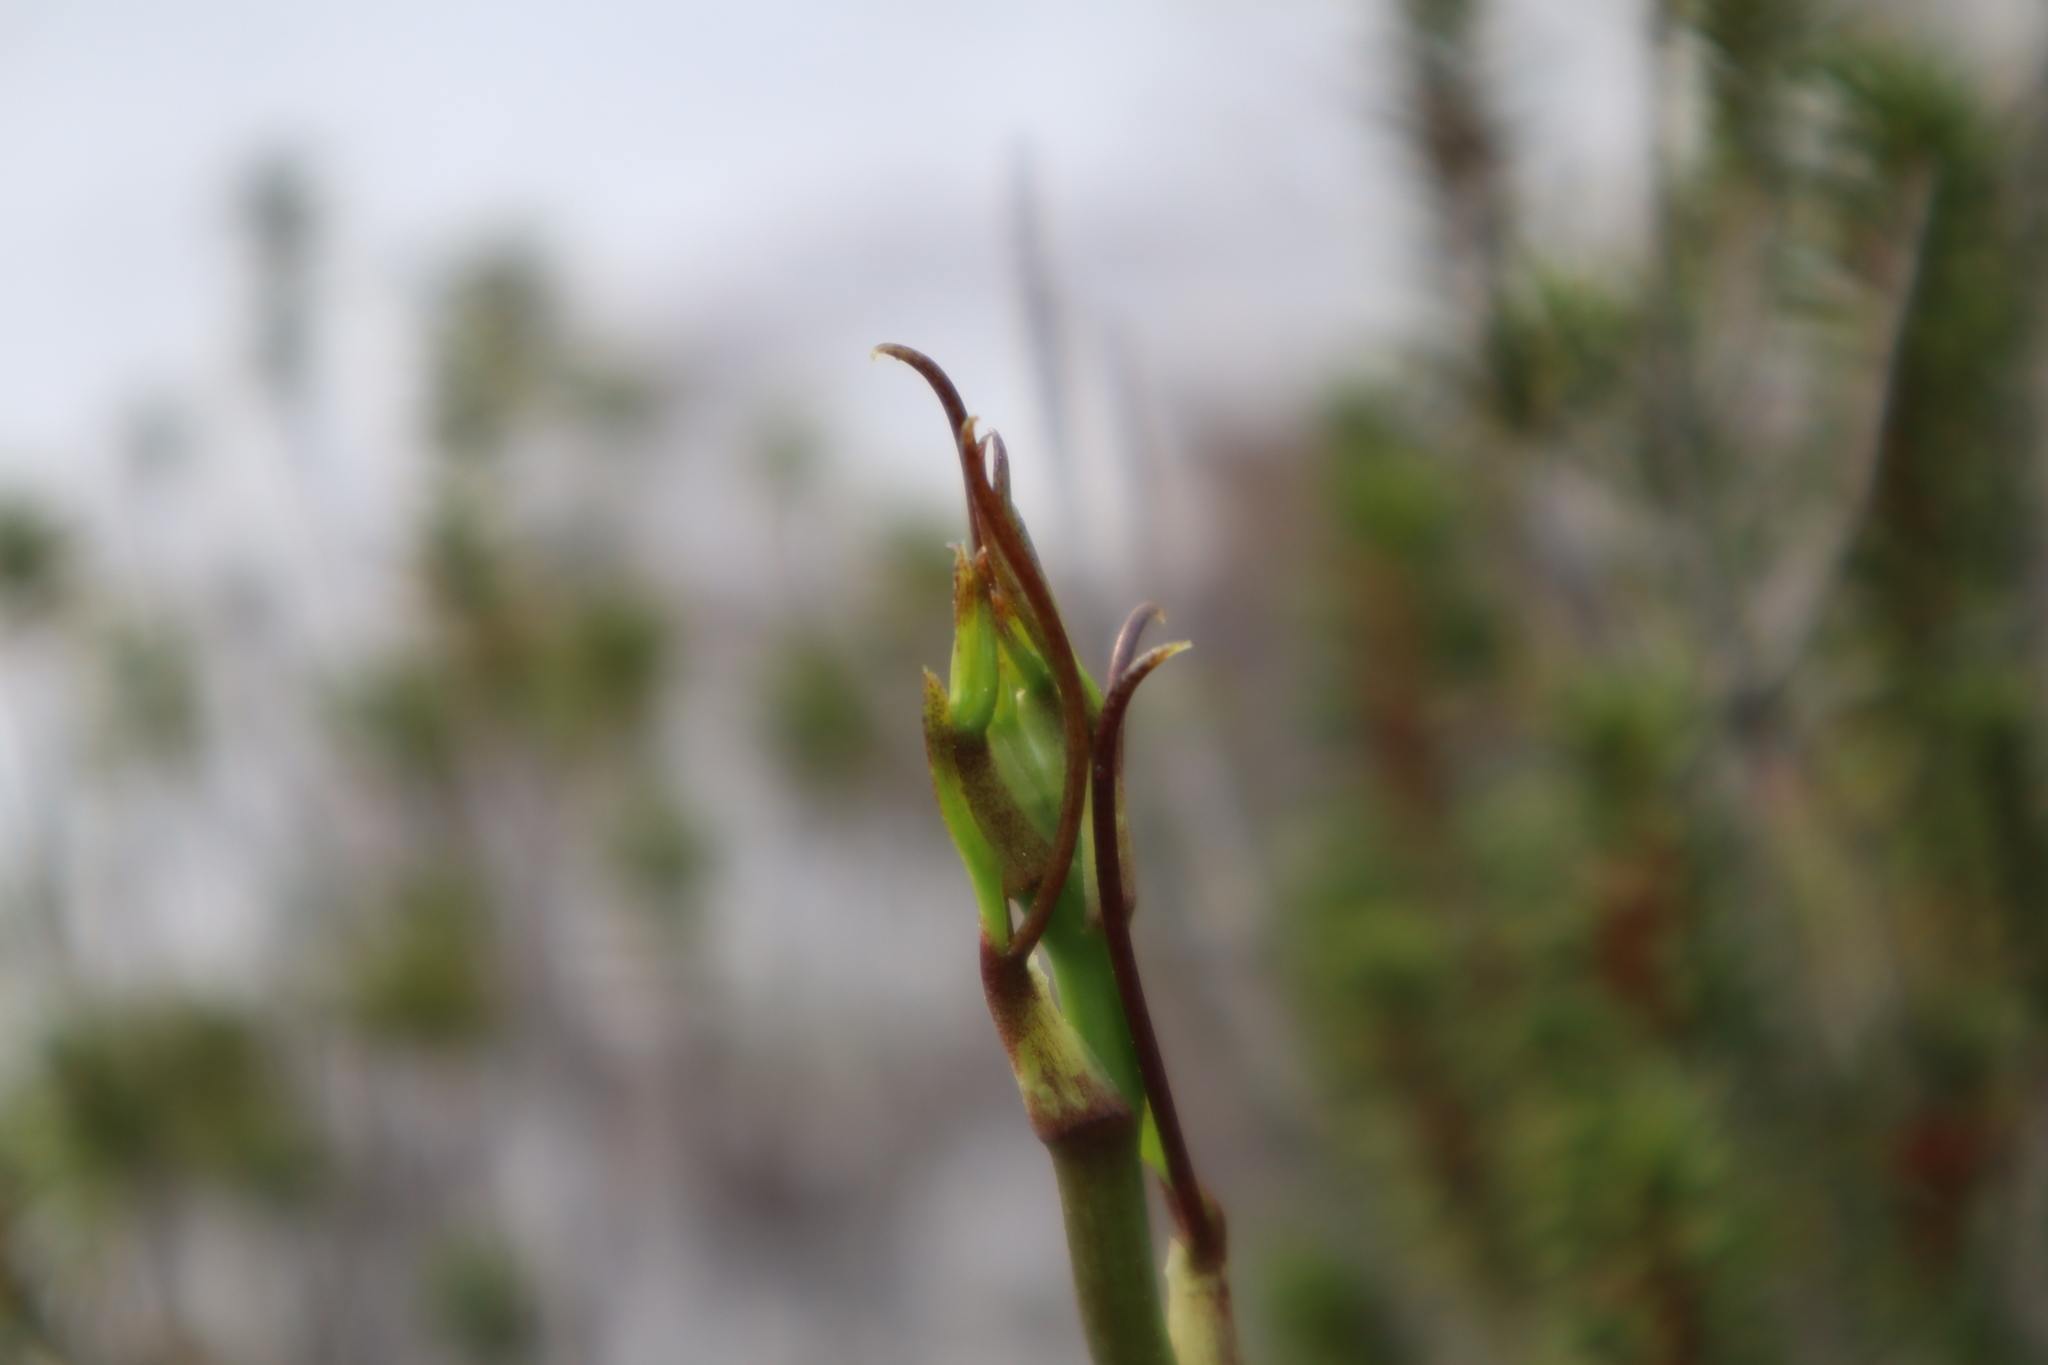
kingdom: Plantae
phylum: Tracheophyta
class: Liliopsida
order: Liliales
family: Smilacaceae
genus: Smilax
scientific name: Smilax auriculata
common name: Wild bamboo
